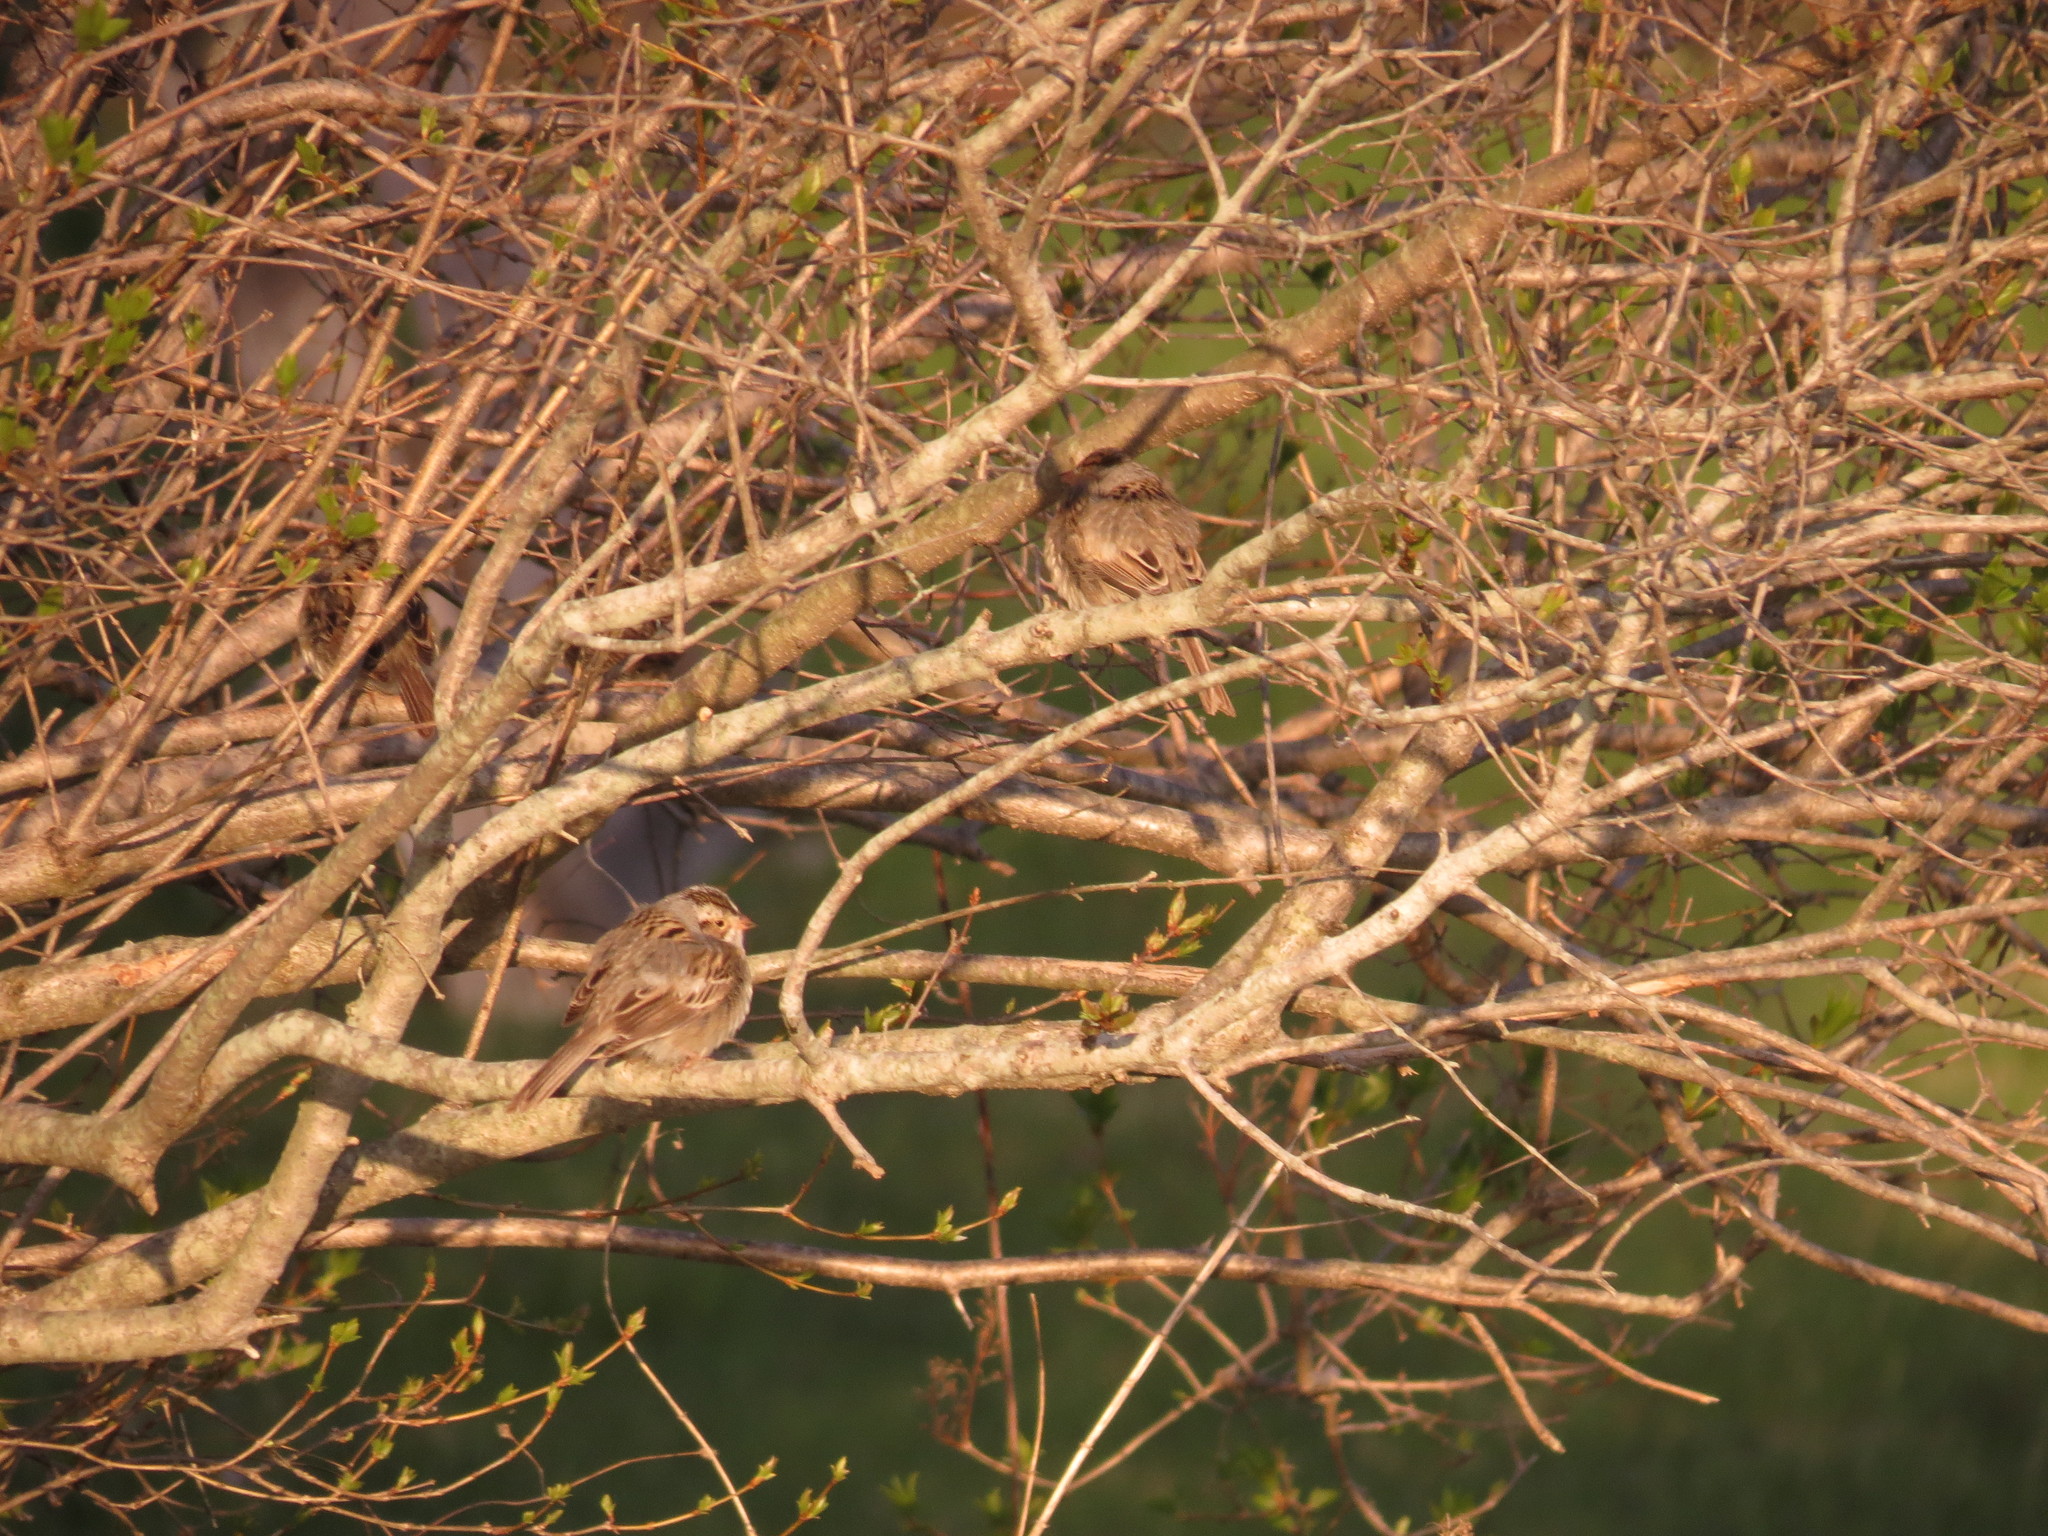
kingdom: Animalia
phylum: Chordata
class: Aves
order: Passeriformes
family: Passerellidae
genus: Spizella
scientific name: Spizella pallida
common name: Clay-colored sparrow
